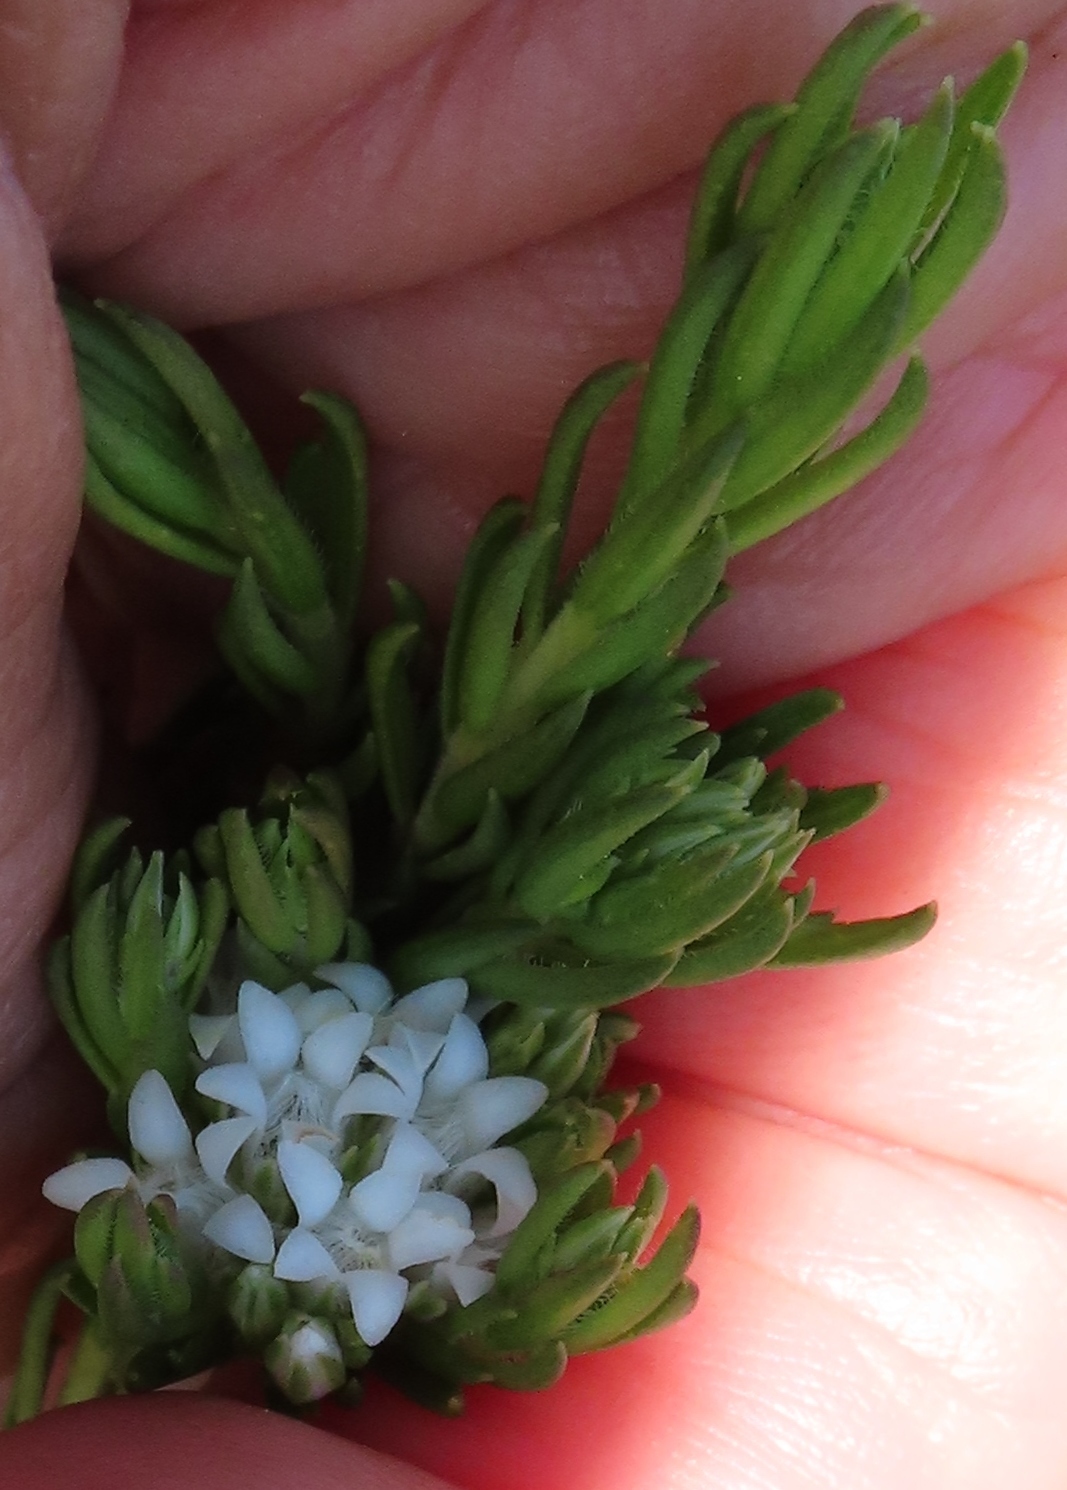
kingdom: Plantae
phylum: Tracheophyta
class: Magnoliopsida
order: Sapindales
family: Rutaceae
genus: Euchaetis
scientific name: Euchaetis diosmoides
